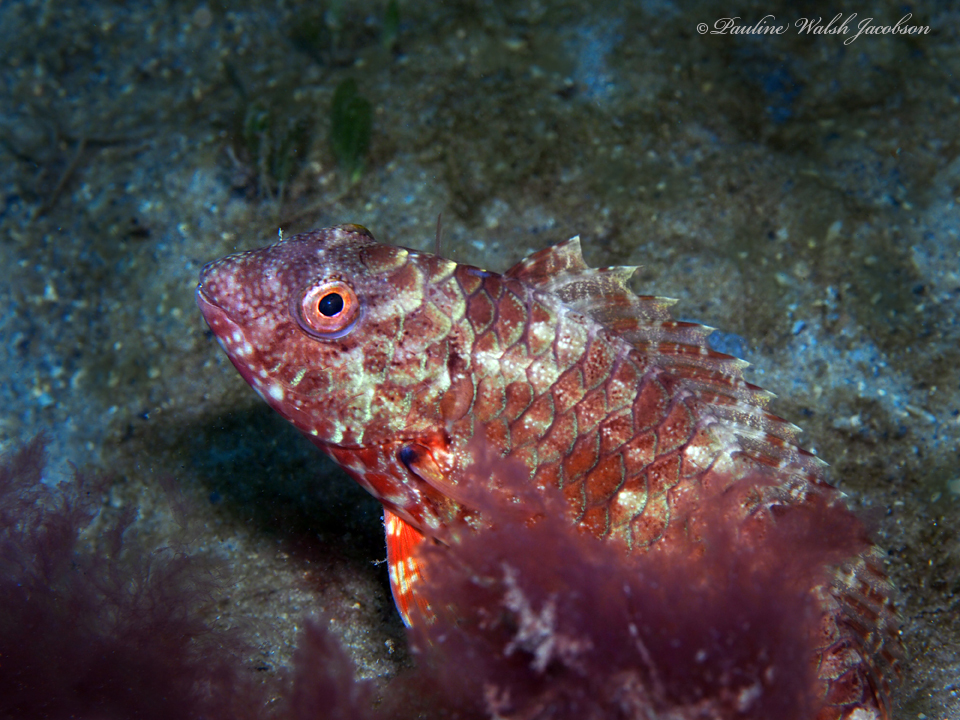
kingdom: Animalia
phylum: Chordata
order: Perciformes
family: Scaridae
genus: Sparisoma
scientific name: Sparisoma chrysopterum
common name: Redtail parrotfish
